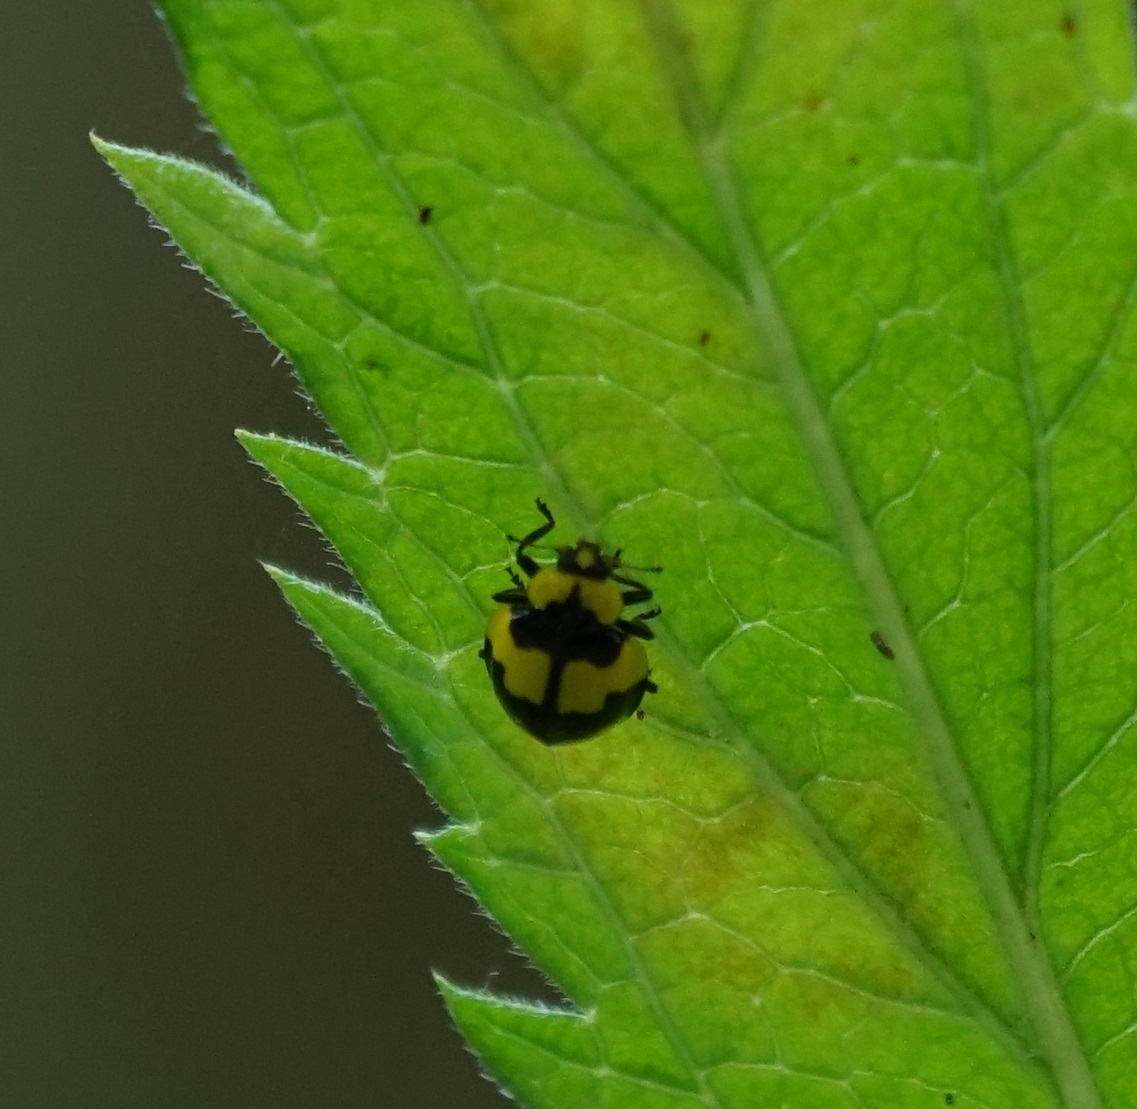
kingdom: Animalia
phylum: Arthropoda
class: Insecta
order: Coleoptera
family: Coccinellidae
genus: Illeis
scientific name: Illeis galbula
